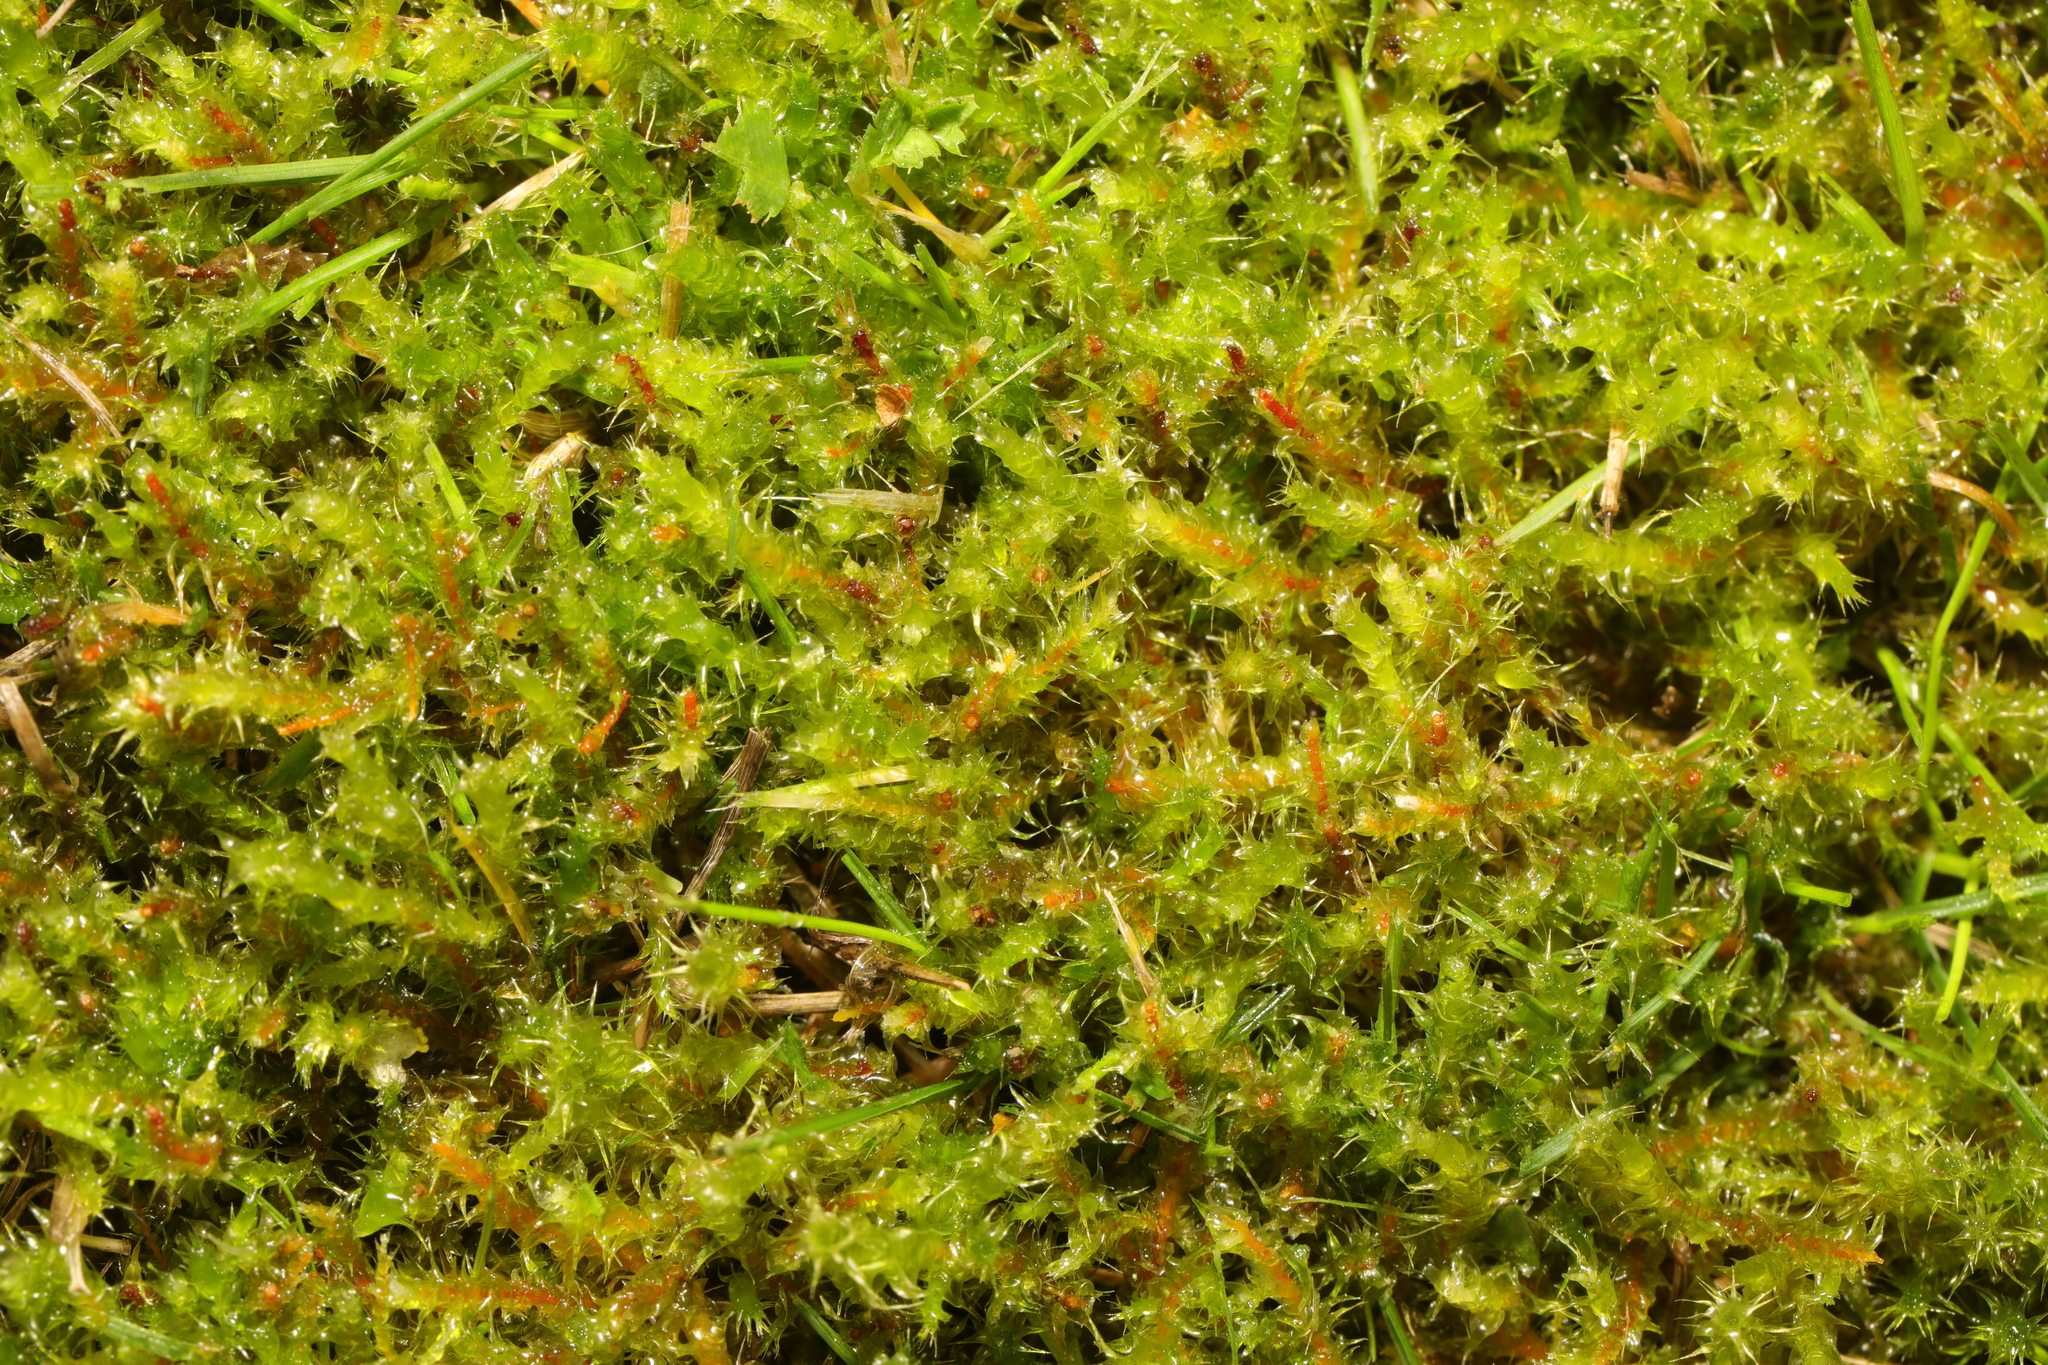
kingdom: Plantae
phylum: Bryophyta
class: Bryopsida
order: Hypnales
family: Hylocomiaceae
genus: Rhytidiadelphus
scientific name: Rhytidiadelphus squarrosus
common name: Springy turf-moss
